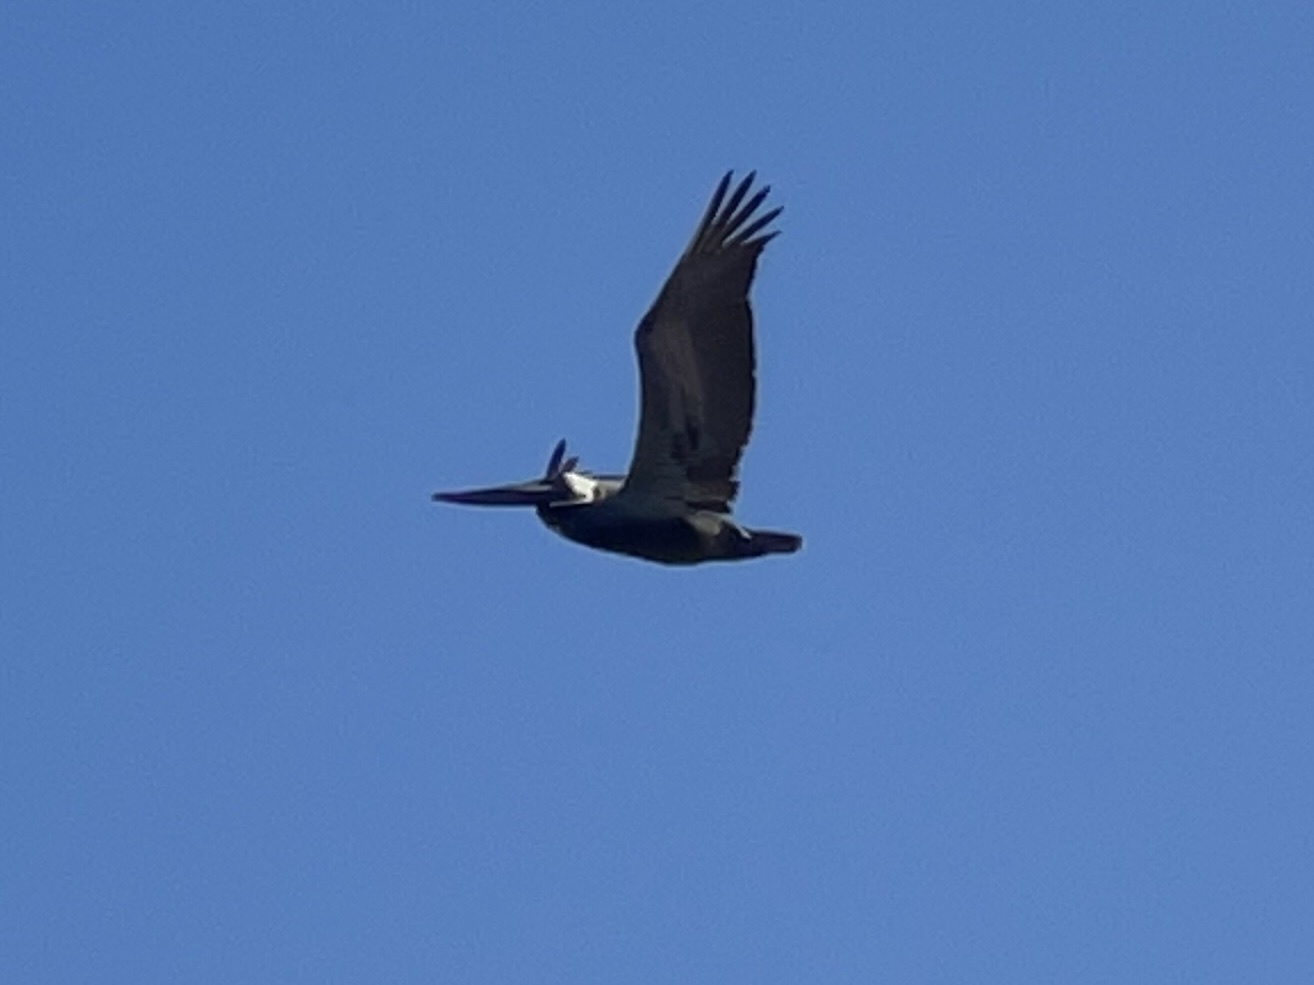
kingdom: Animalia
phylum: Chordata
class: Aves
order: Pelecaniformes
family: Pelecanidae
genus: Pelecanus
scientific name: Pelecanus occidentalis
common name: Brown pelican
